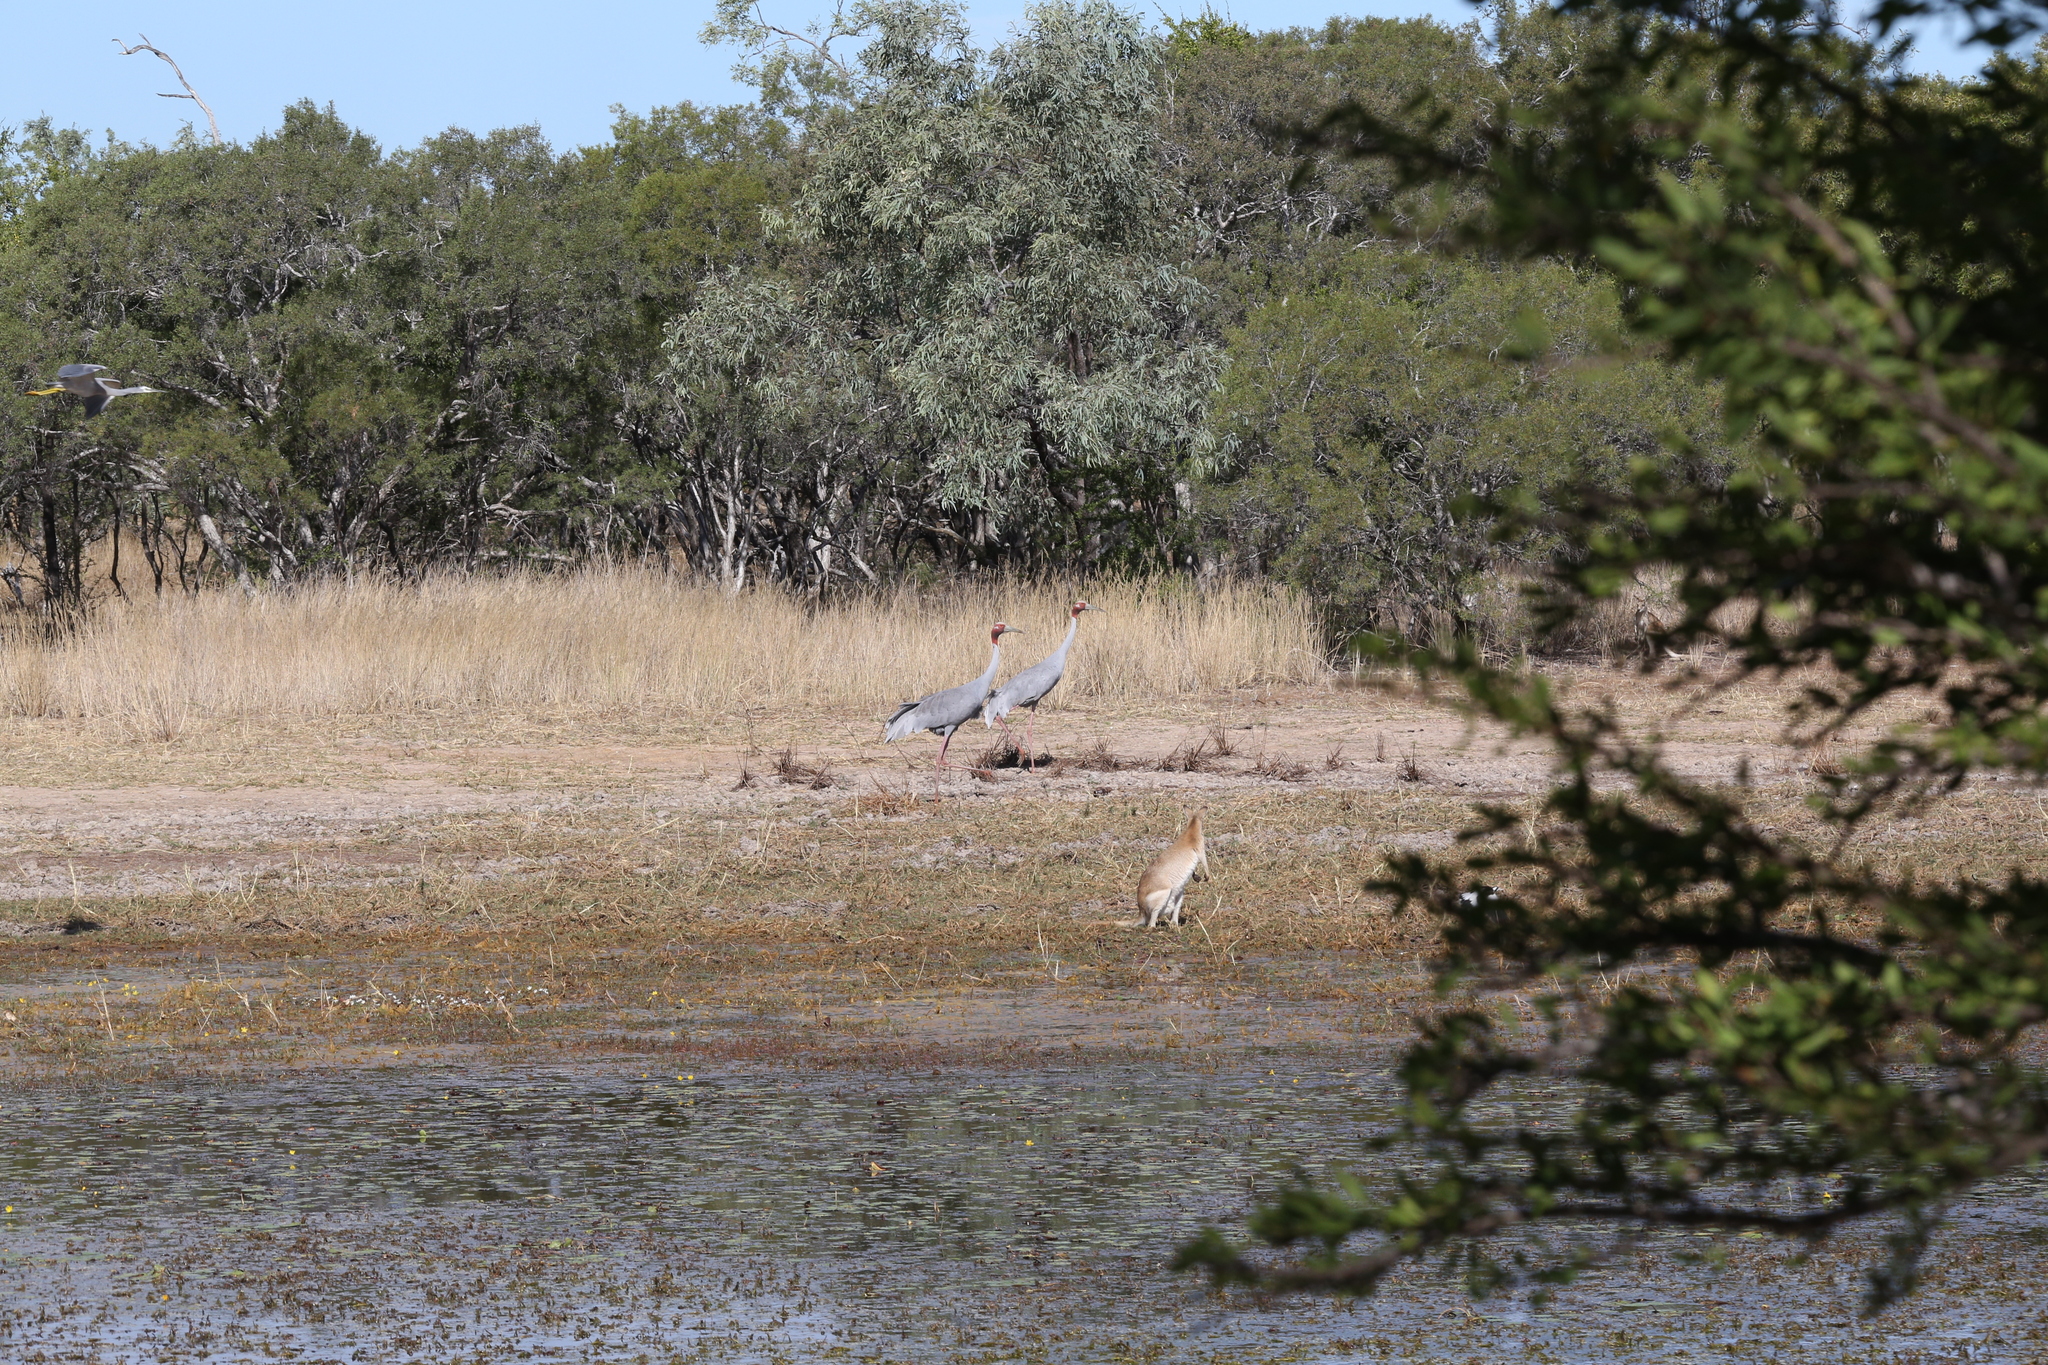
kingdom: Animalia
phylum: Chordata
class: Aves
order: Gruiformes
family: Gruidae
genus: Grus
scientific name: Grus antigone
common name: Sarus crane
